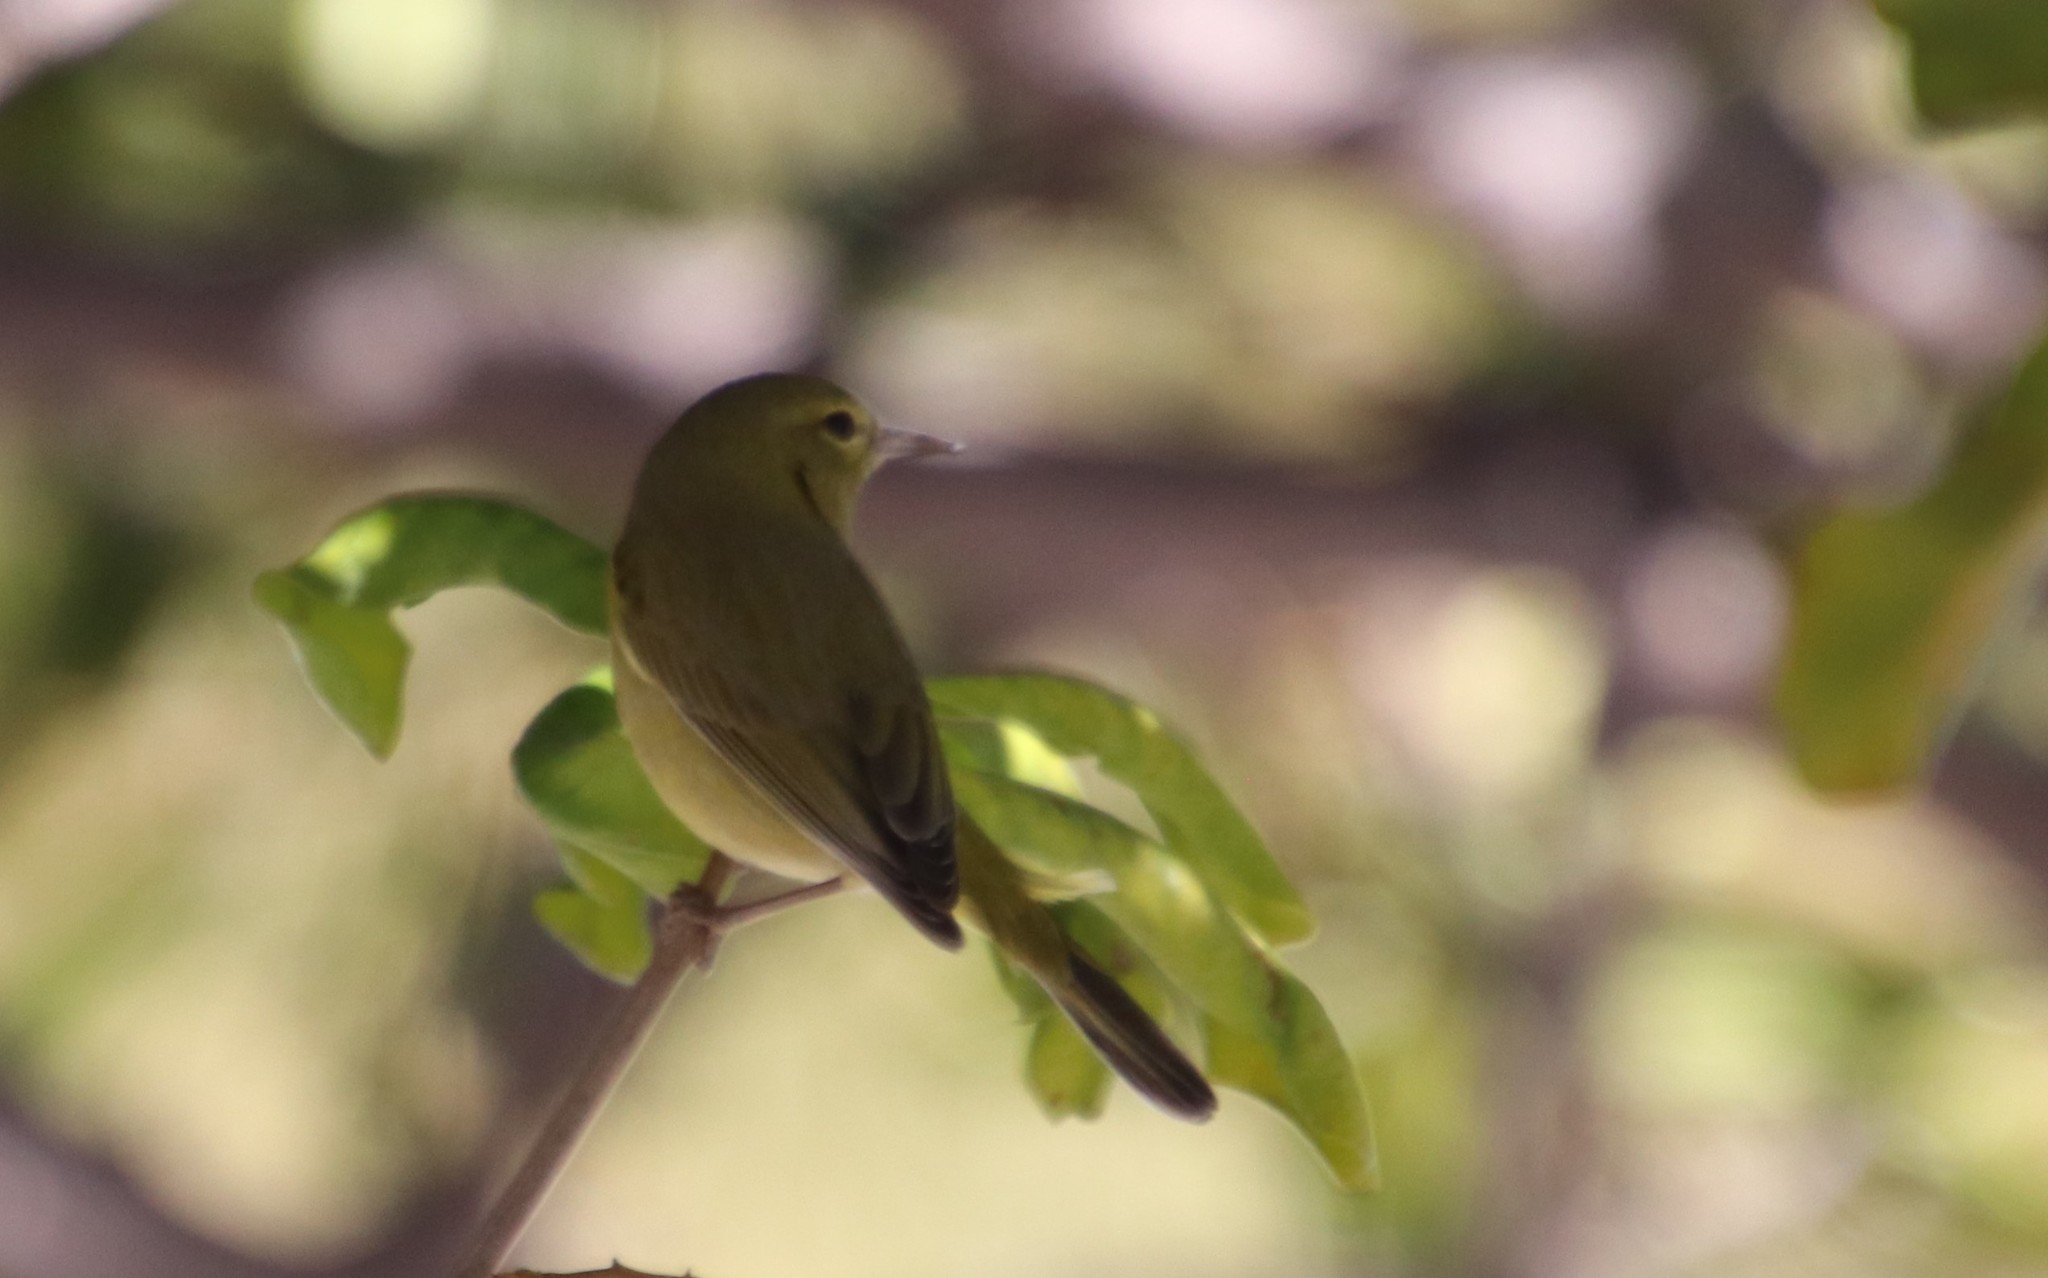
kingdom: Animalia
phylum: Chordata
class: Aves
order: Passeriformes
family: Parulidae
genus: Leiothlypis
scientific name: Leiothlypis celata
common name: Orange-crowned warbler
